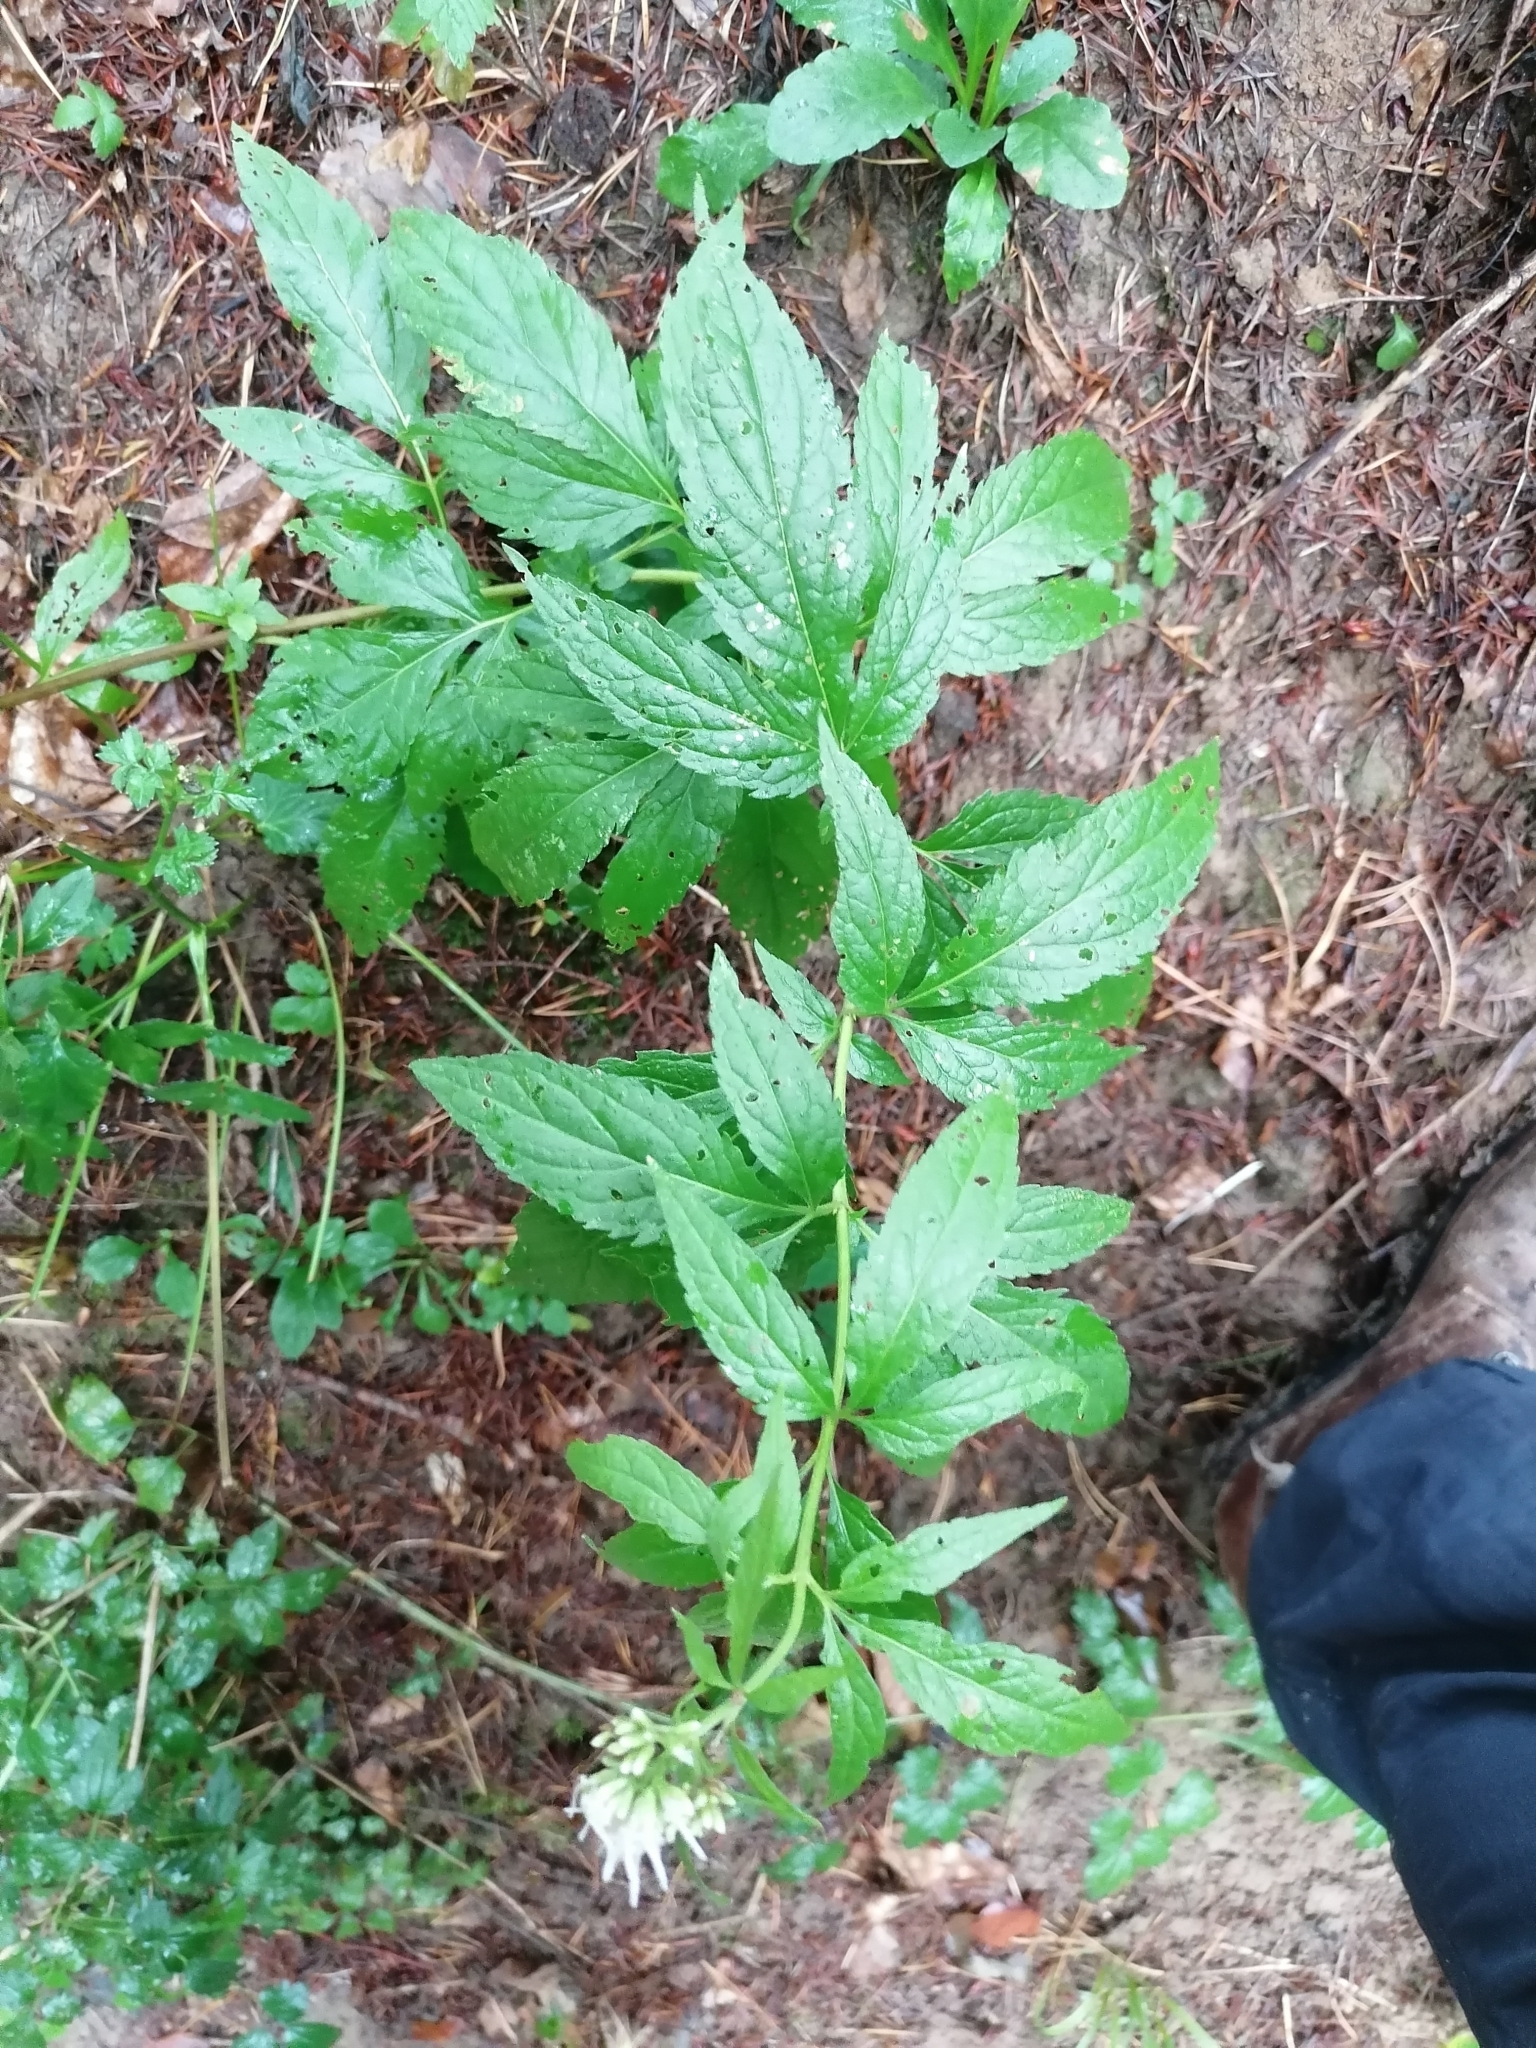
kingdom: Plantae
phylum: Tracheophyta
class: Magnoliopsida
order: Asterales
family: Asteraceae
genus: Eupatorium
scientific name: Eupatorium cannabinum
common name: Hemp-agrimony
